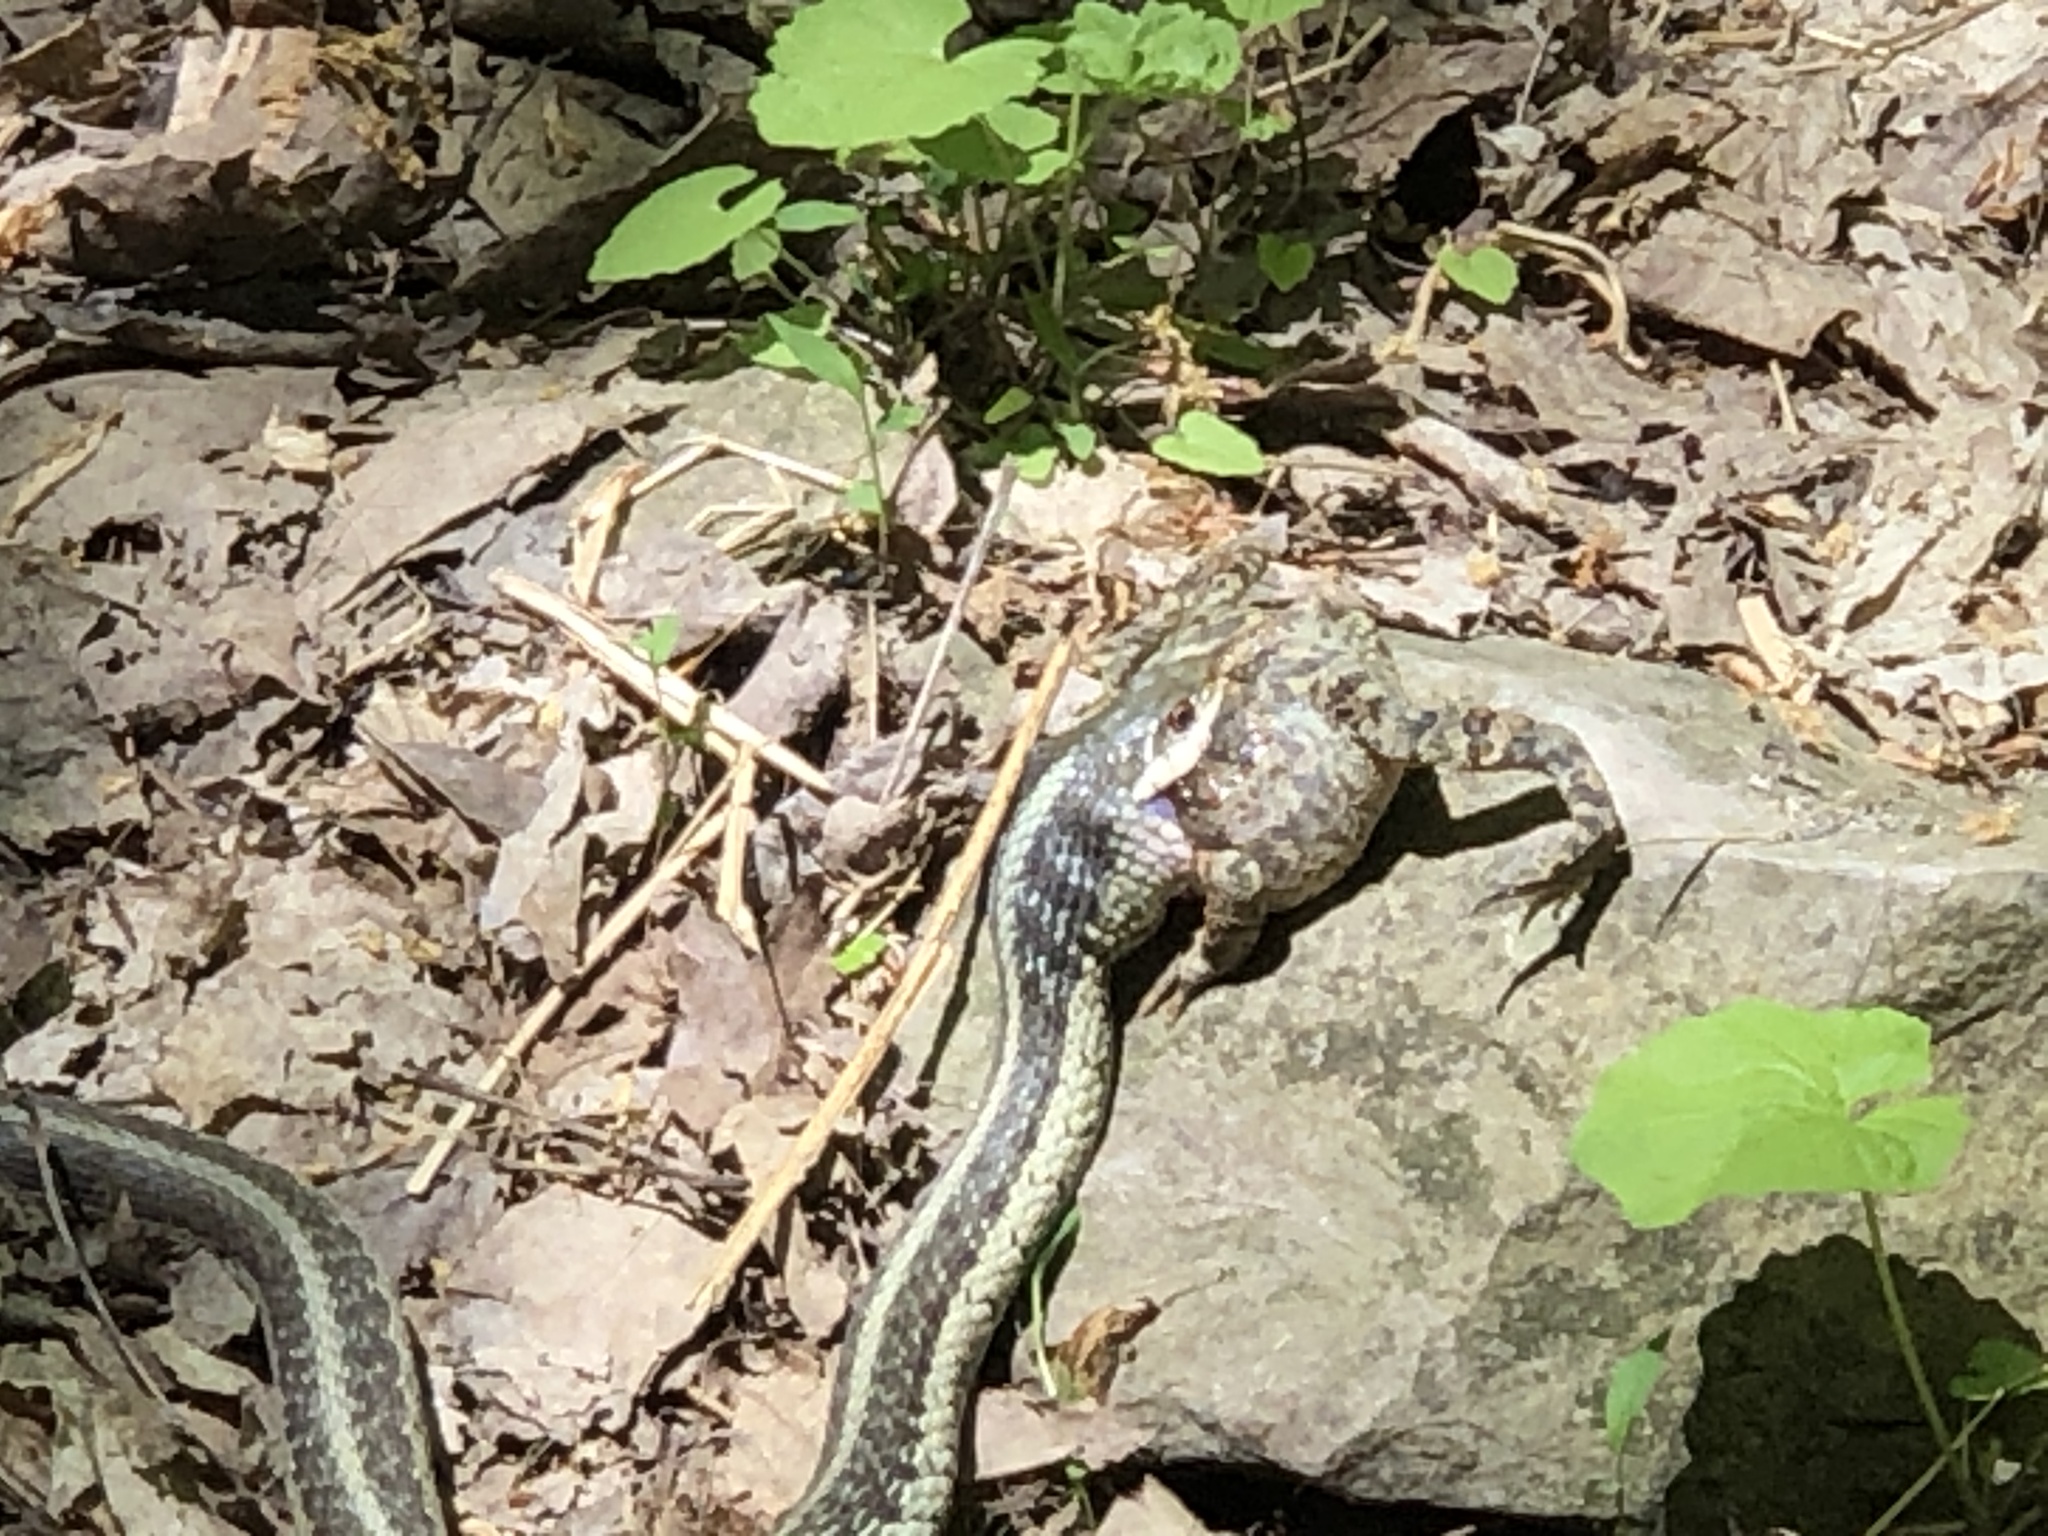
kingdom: Animalia
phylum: Chordata
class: Squamata
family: Colubridae
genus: Thamnophis
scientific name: Thamnophis sirtalis
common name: Common garter snake
